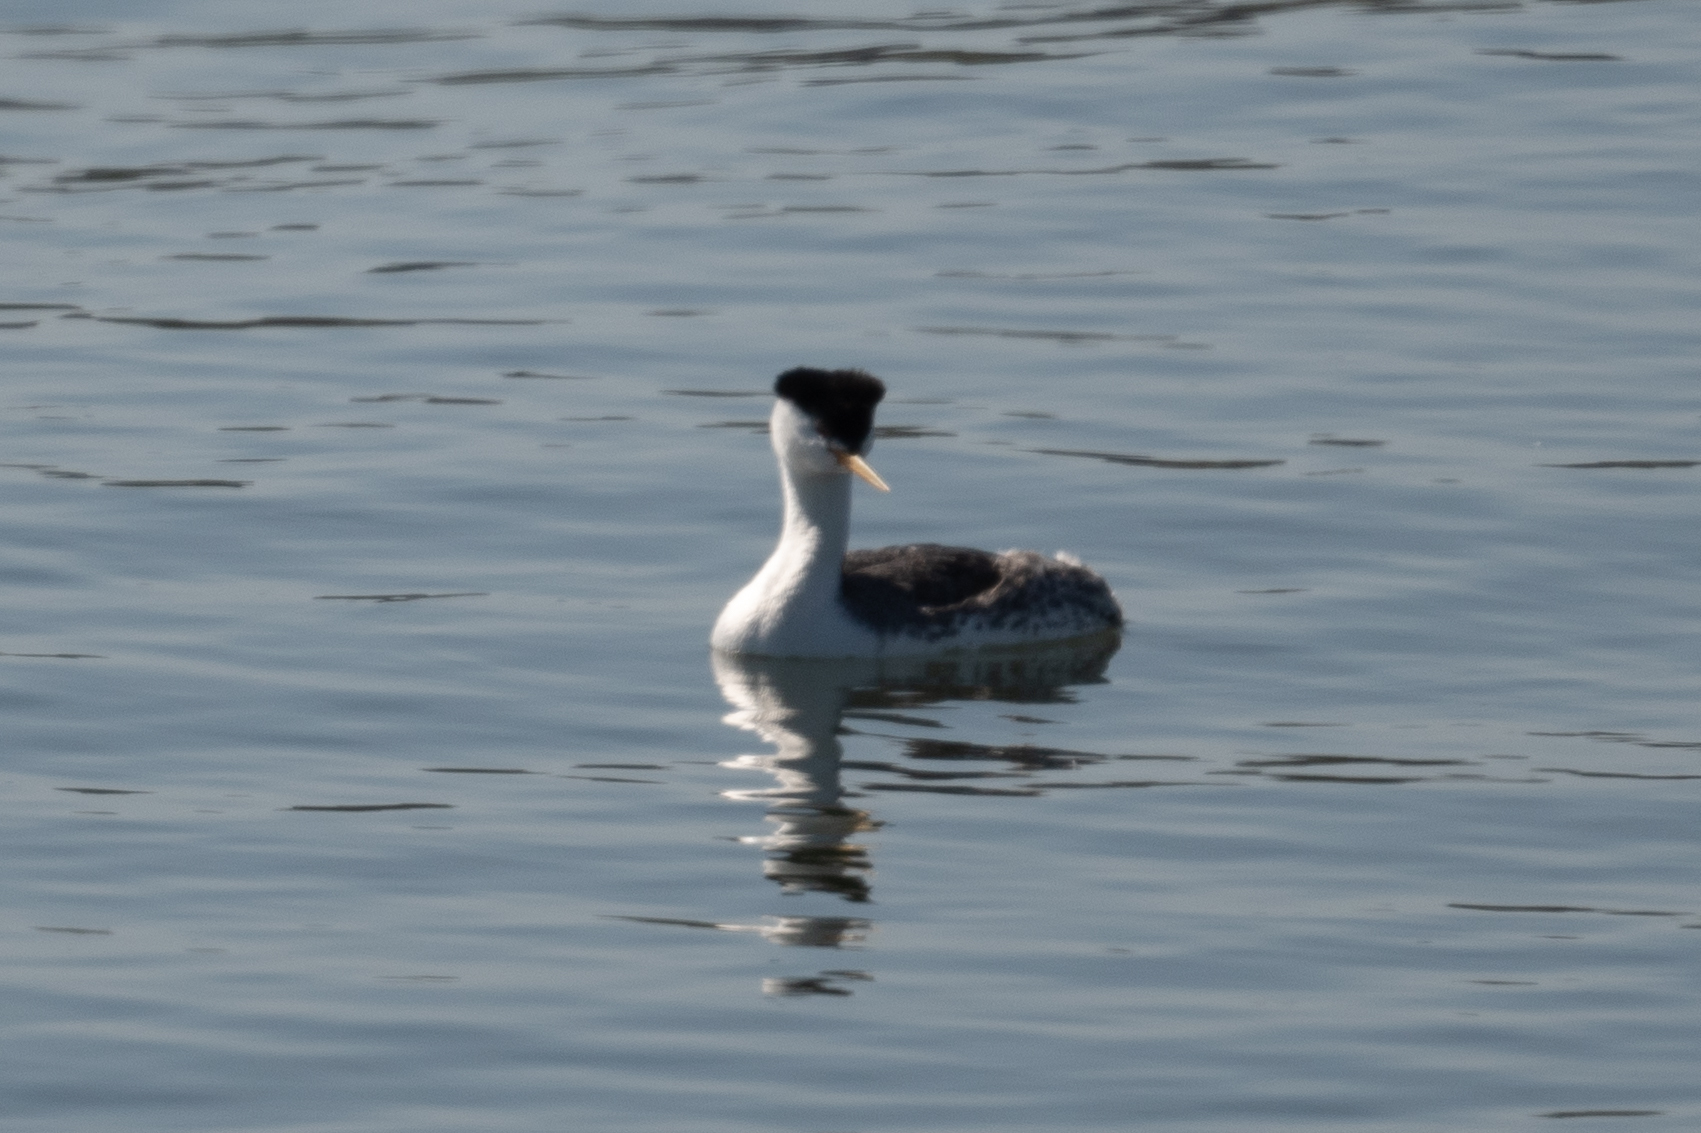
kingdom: Animalia
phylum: Chordata
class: Aves
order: Podicipediformes
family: Podicipedidae
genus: Aechmophorus
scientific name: Aechmophorus occidentalis
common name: Western grebe
